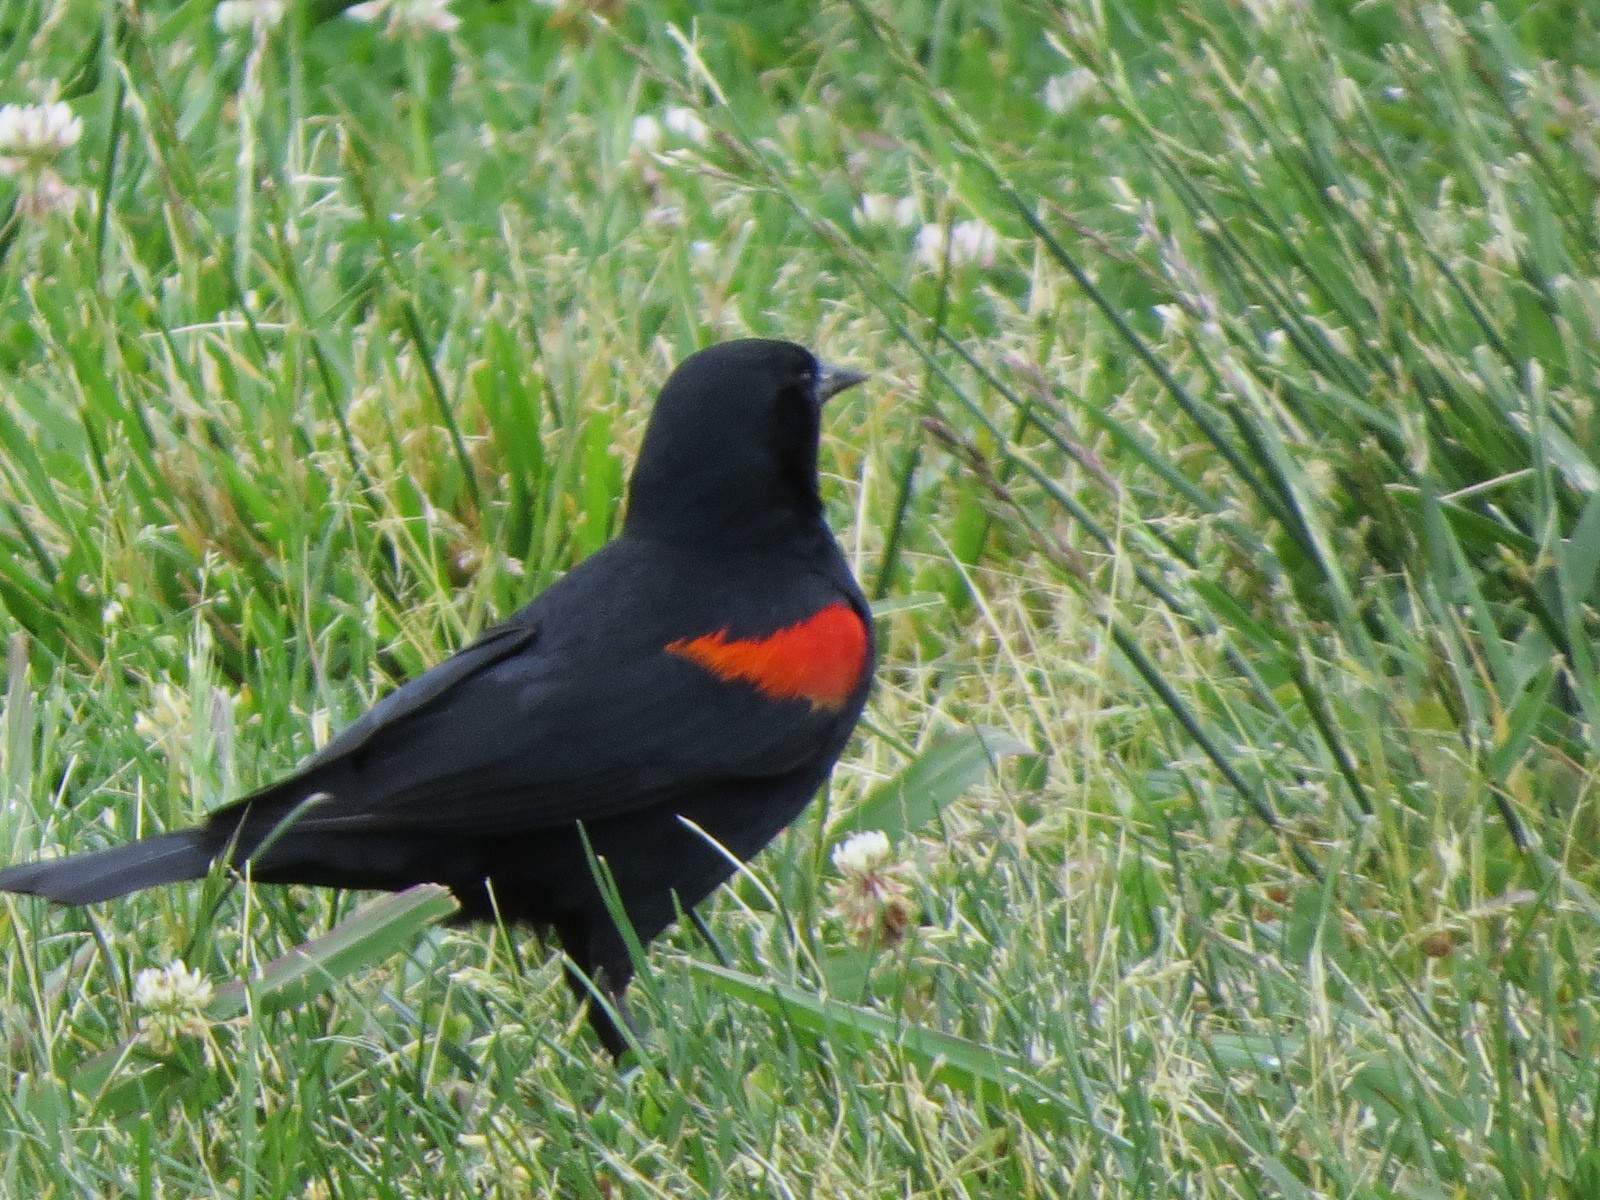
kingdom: Animalia
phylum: Chordata
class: Aves
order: Passeriformes
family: Icteridae
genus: Agelaius
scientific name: Agelaius phoeniceus
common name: Red-winged blackbird
